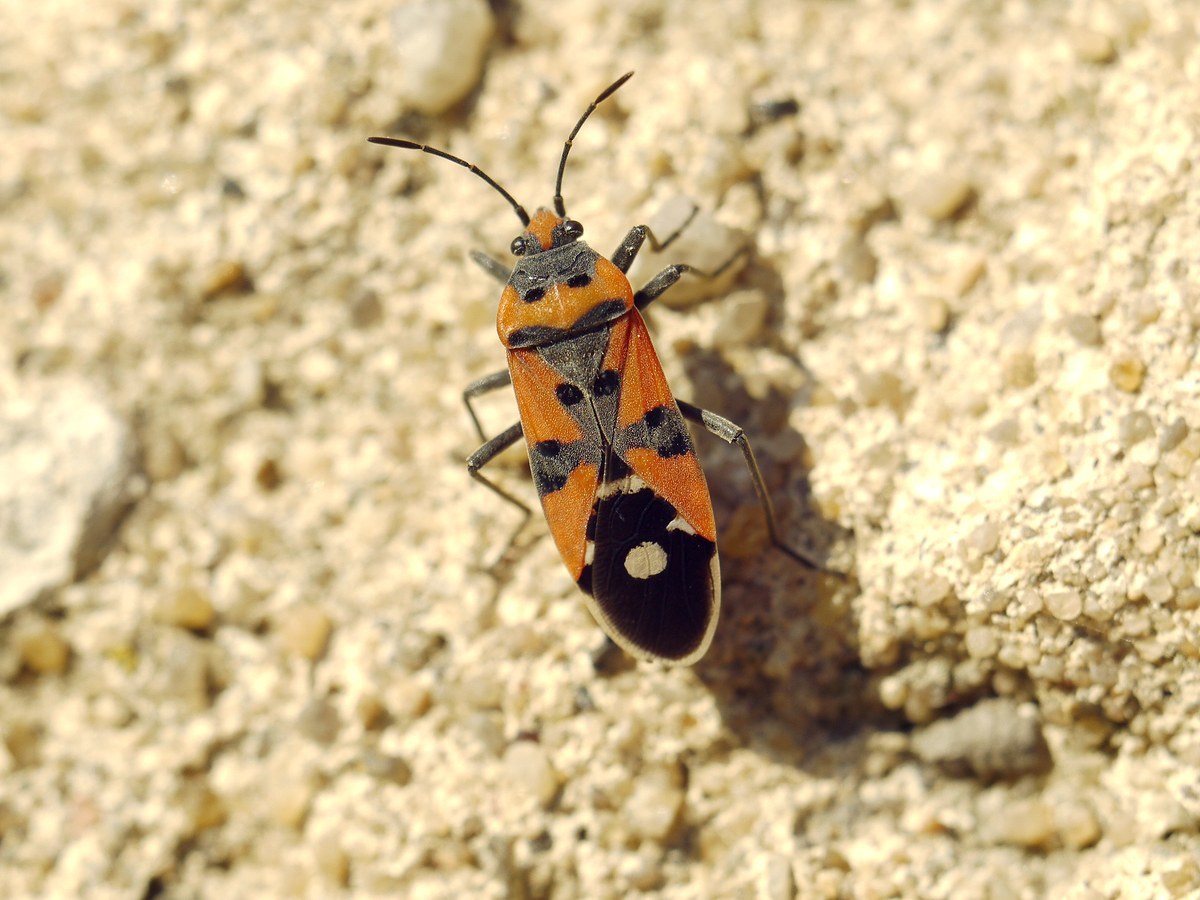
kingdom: Animalia
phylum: Arthropoda
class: Insecta
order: Hemiptera
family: Lygaeidae
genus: Lygaeus
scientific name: Lygaeus equestris
